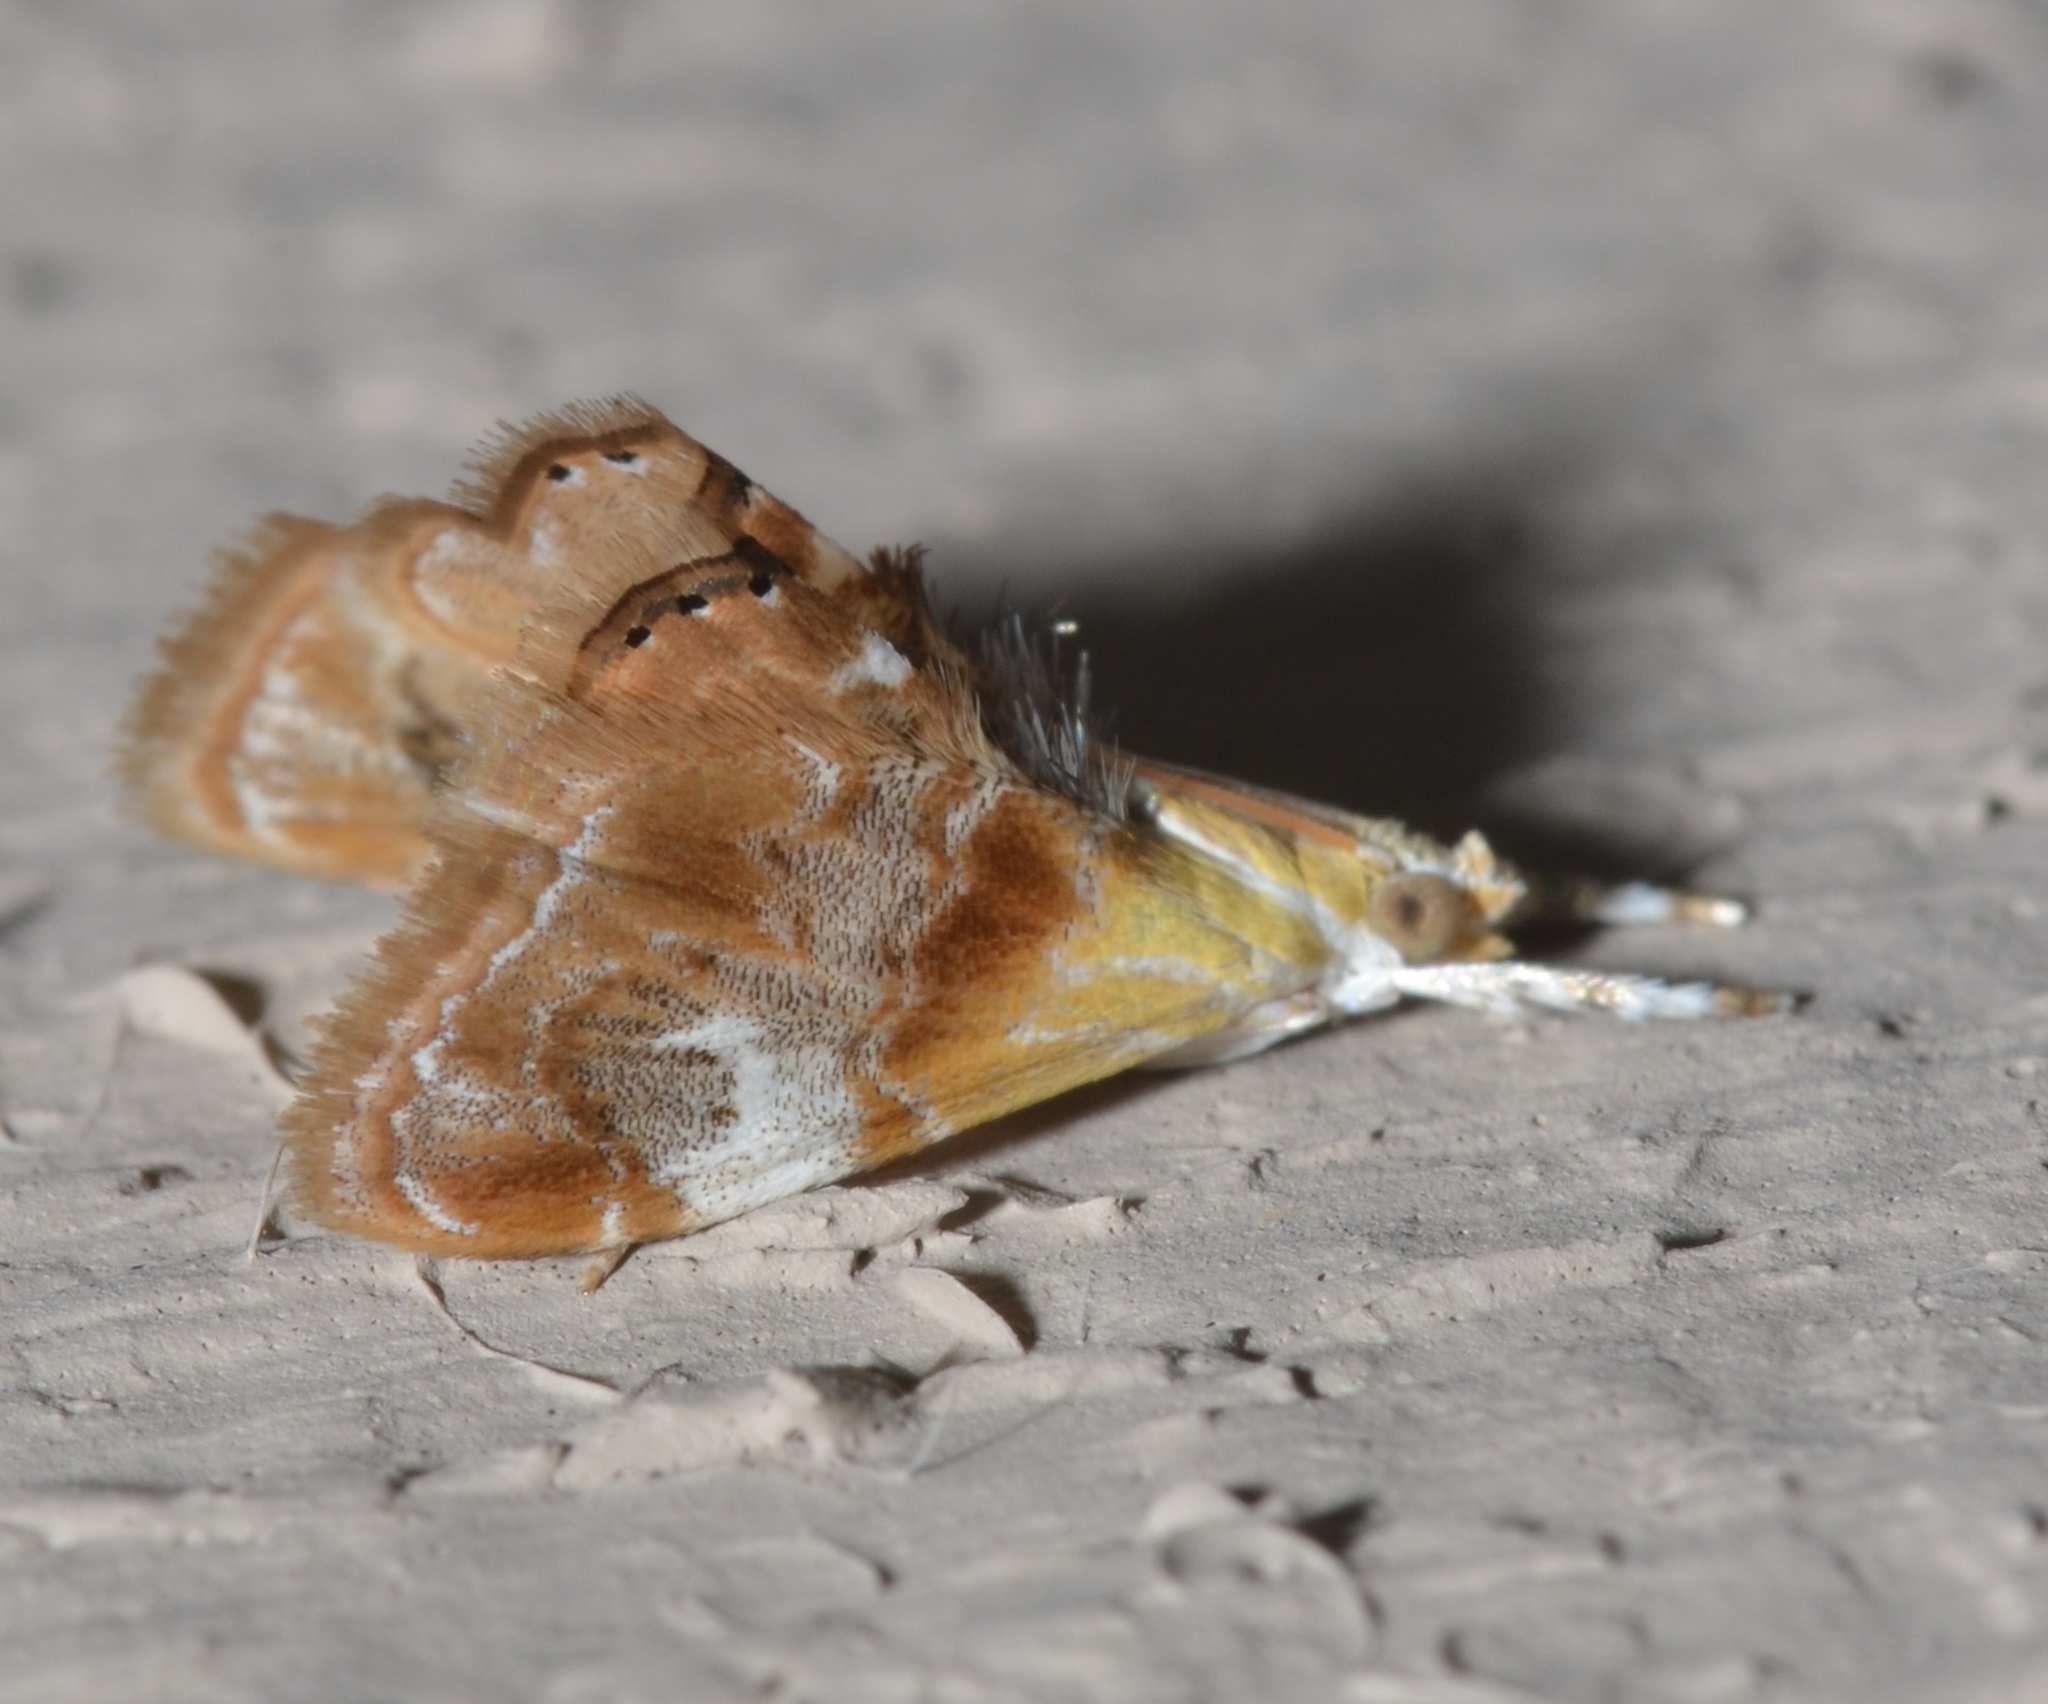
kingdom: Animalia
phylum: Arthropoda
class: Insecta
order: Lepidoptera
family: Crambidae
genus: Dicymolomia
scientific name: Dicymolomia julianalis
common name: Julia's dicymolomia moth
